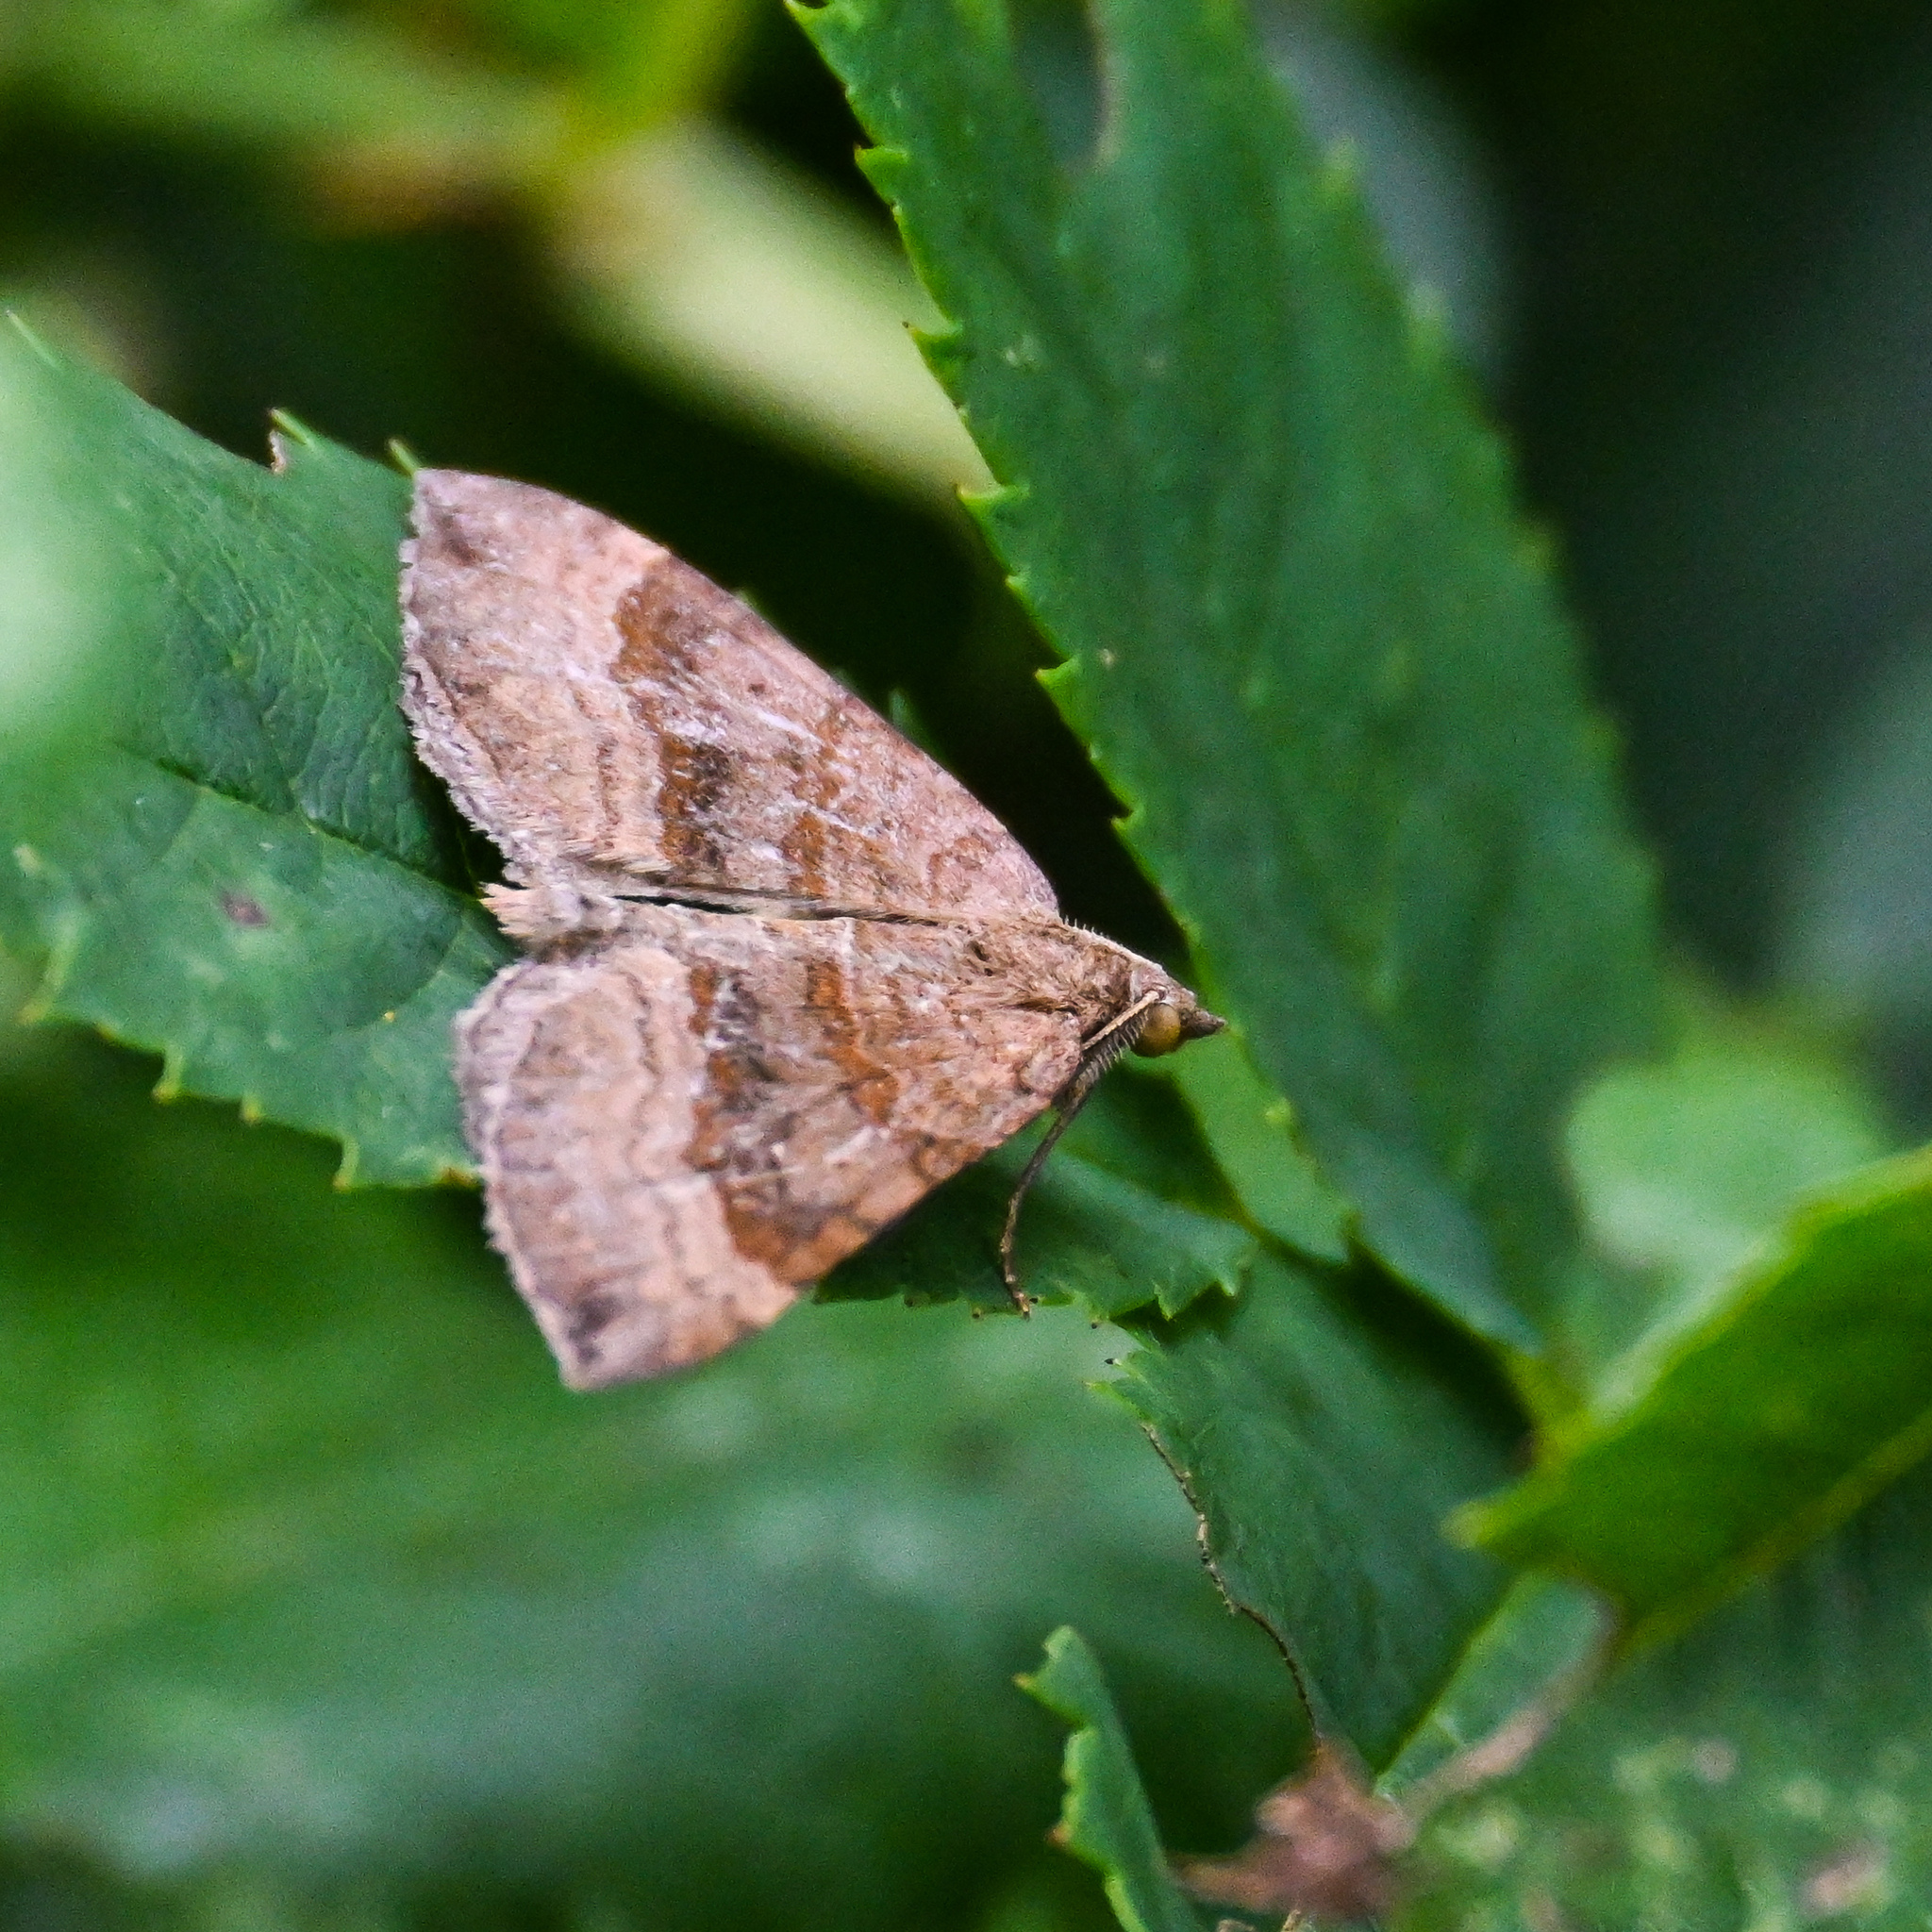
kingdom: Animalia
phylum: Arthropoda
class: Insecta
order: Lepidoptera
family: Geometridae
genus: Scotopteryx
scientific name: Scotopteryx chenopodiata
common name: Shaded broad-bar
